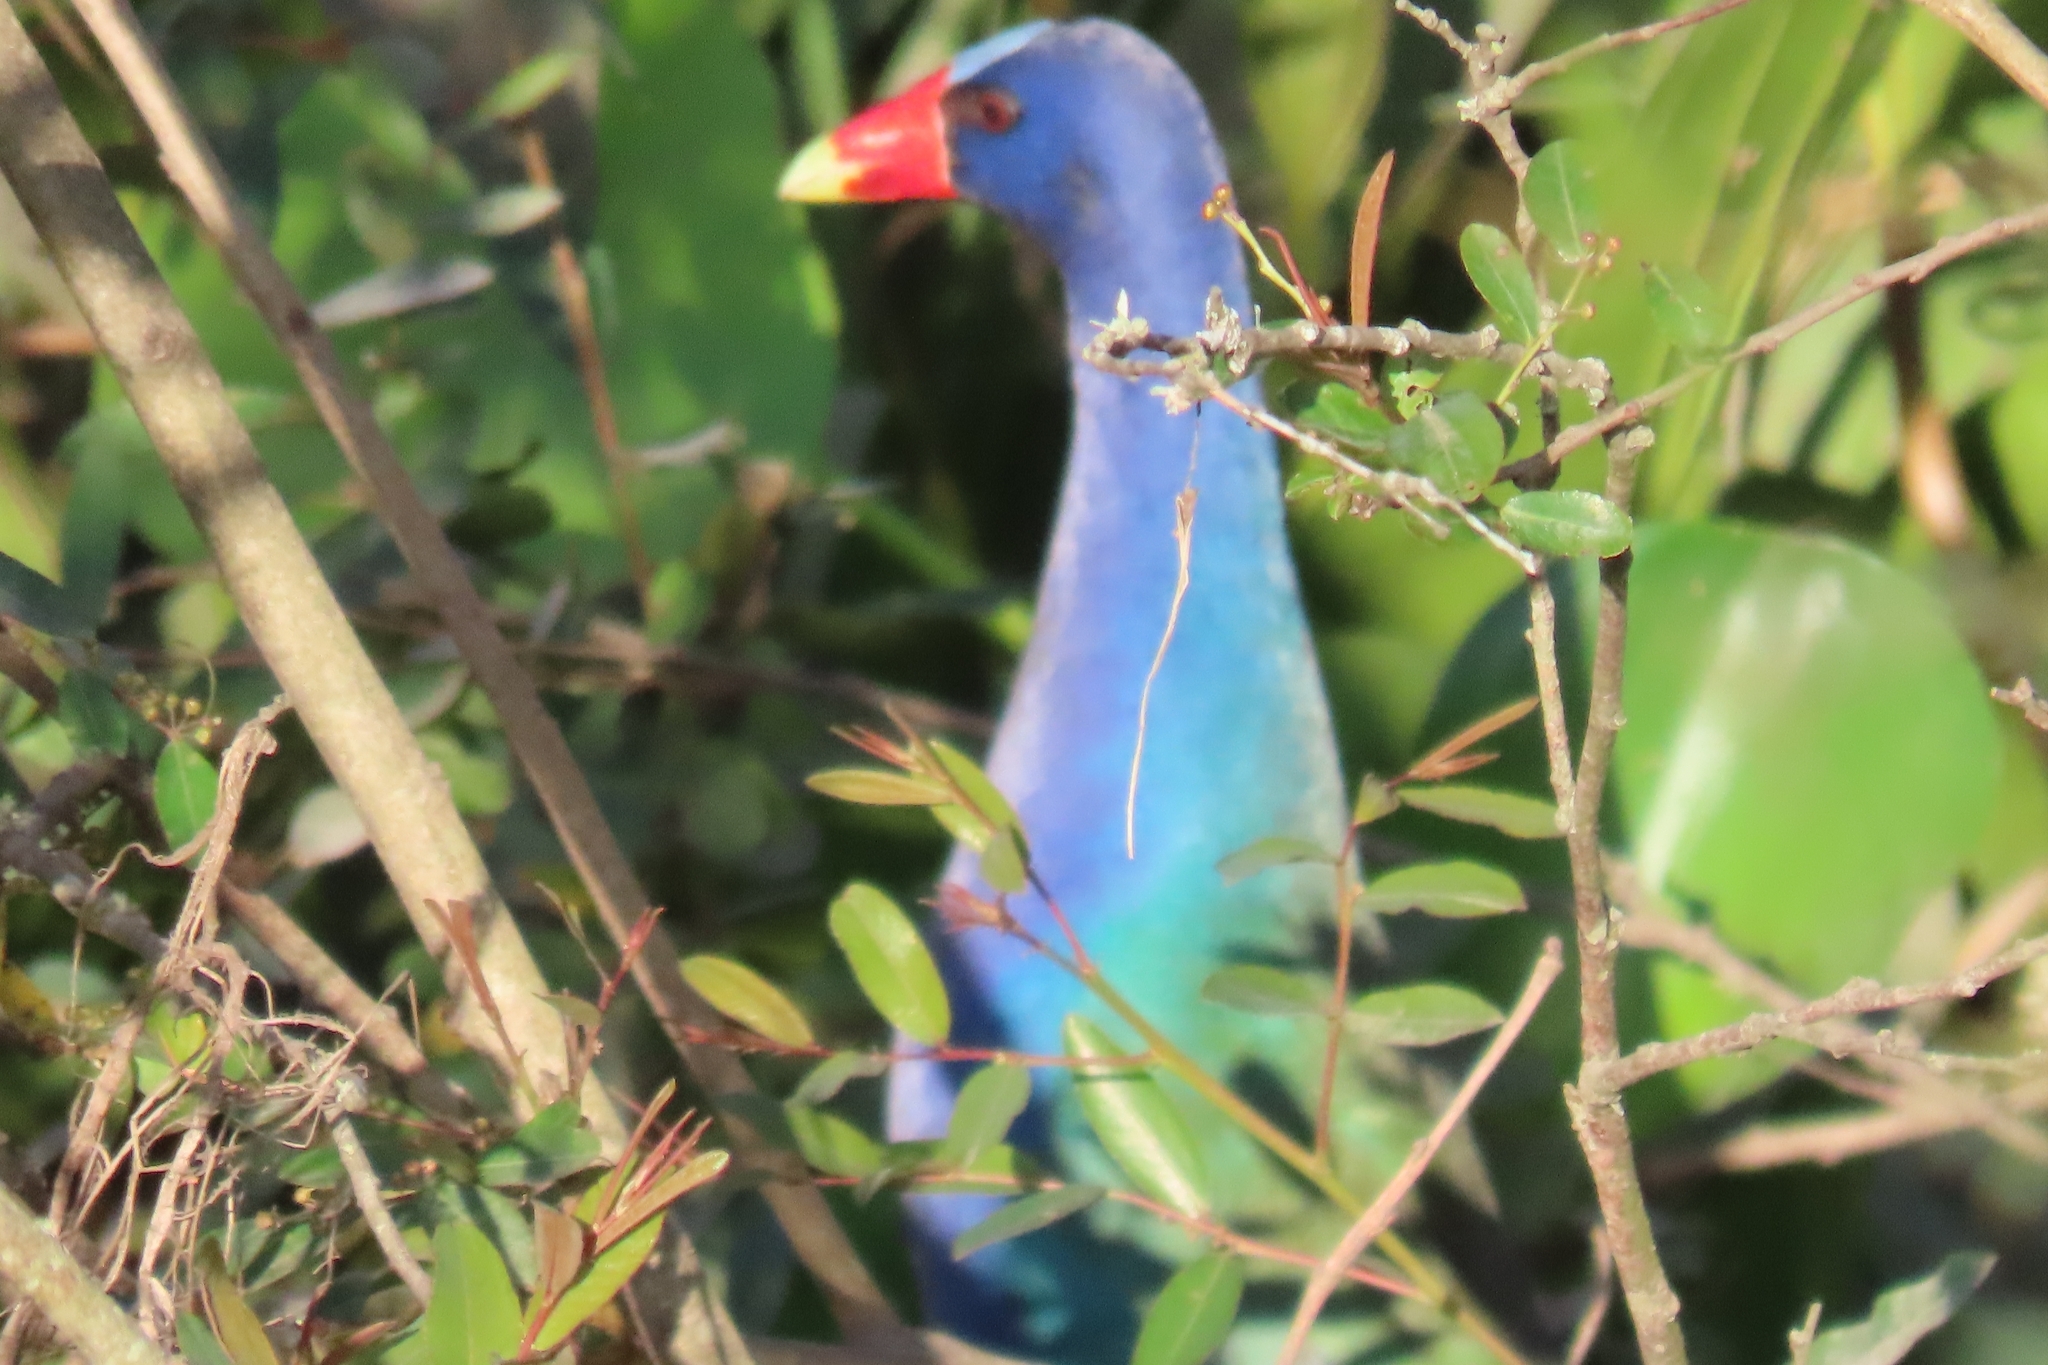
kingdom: Animalia
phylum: Chordata
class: Aves
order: Gruiformes
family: Rallidae
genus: Porphyrio
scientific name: Porphyrio martinica
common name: Purple gallinule
